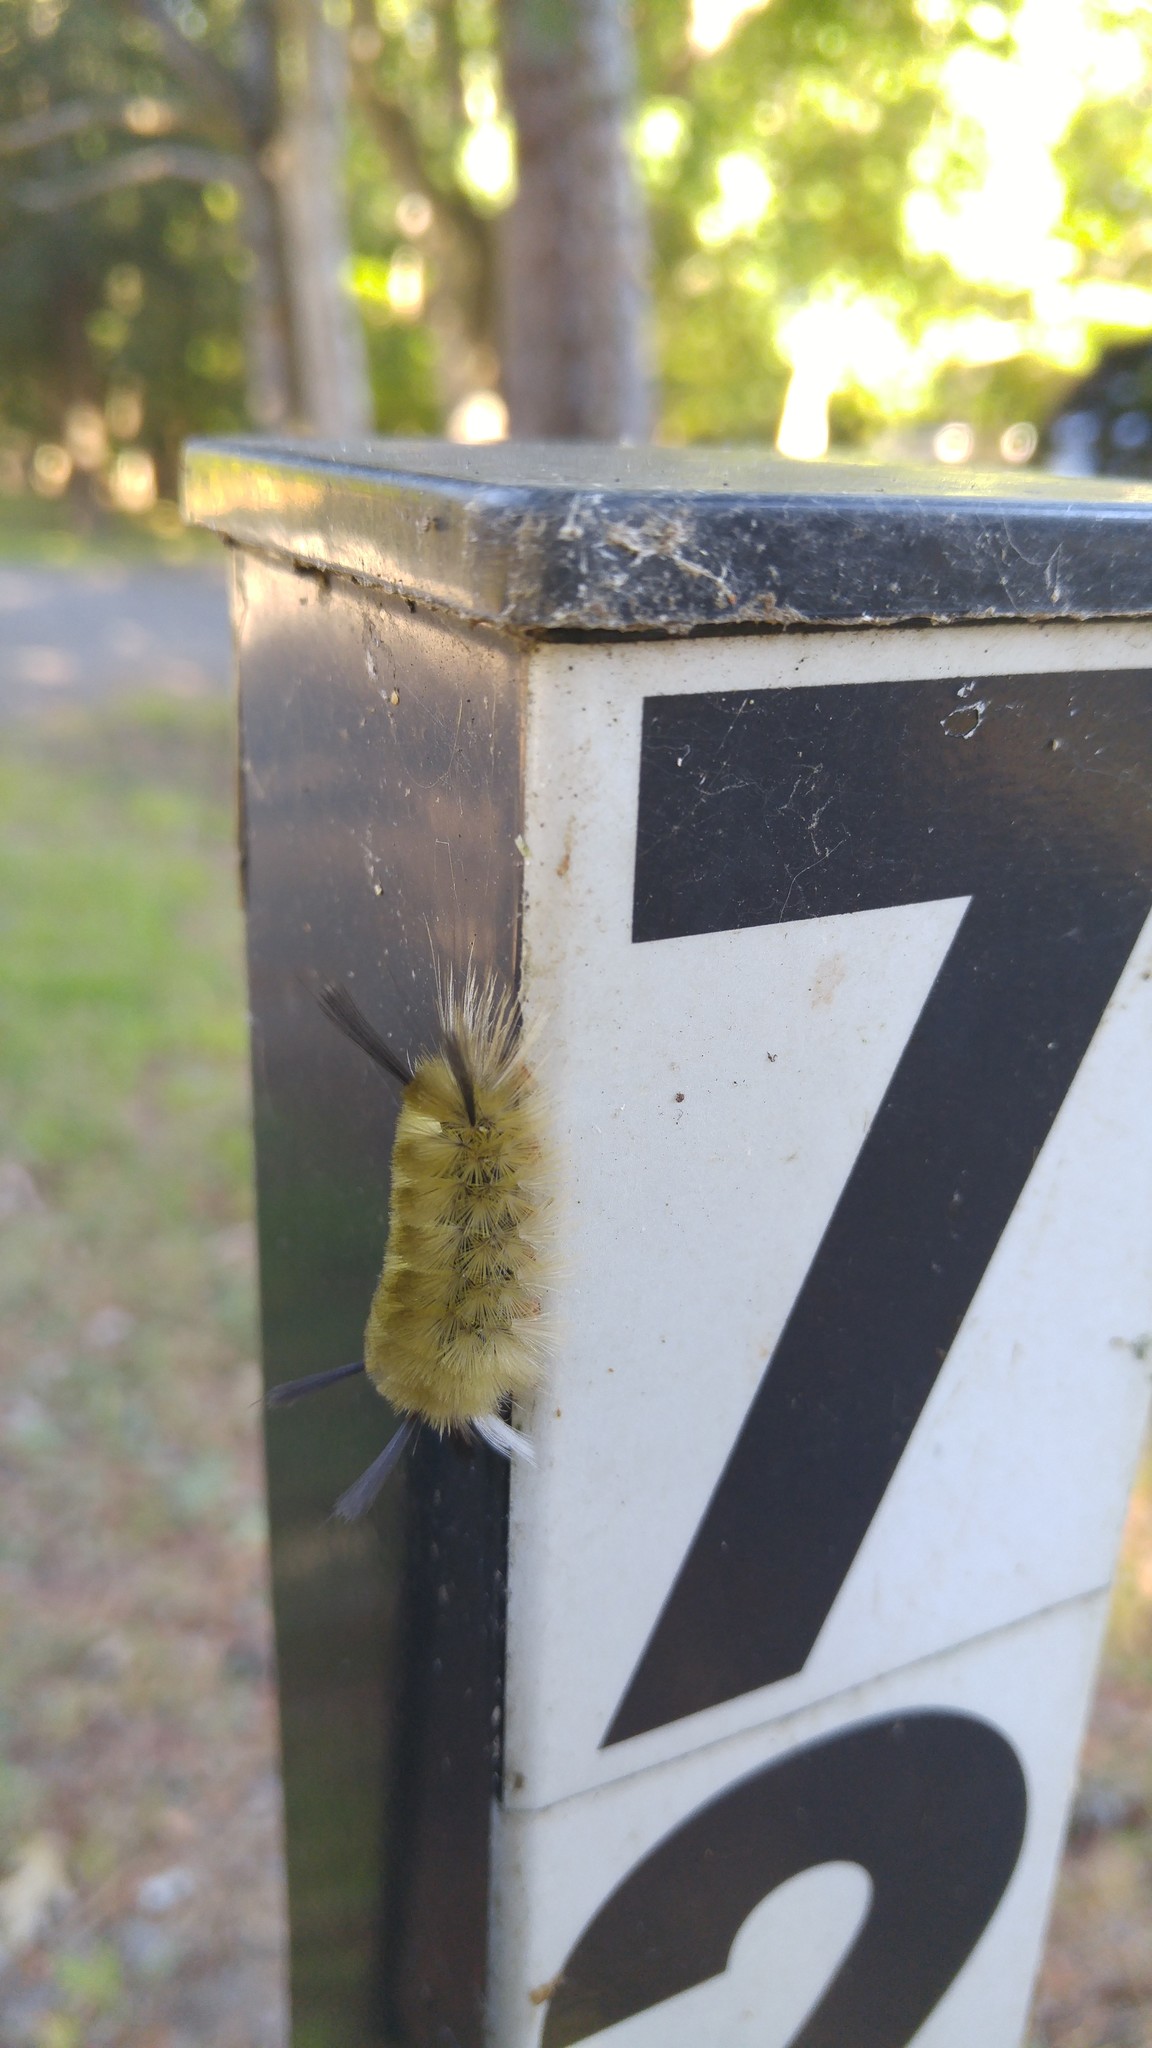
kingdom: Animalia
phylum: Arthropoda
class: Insecta
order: Lepidoptera
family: Erebidae
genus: Halysidota
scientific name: Halysidota tessellaris
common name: Banded tussock moth
